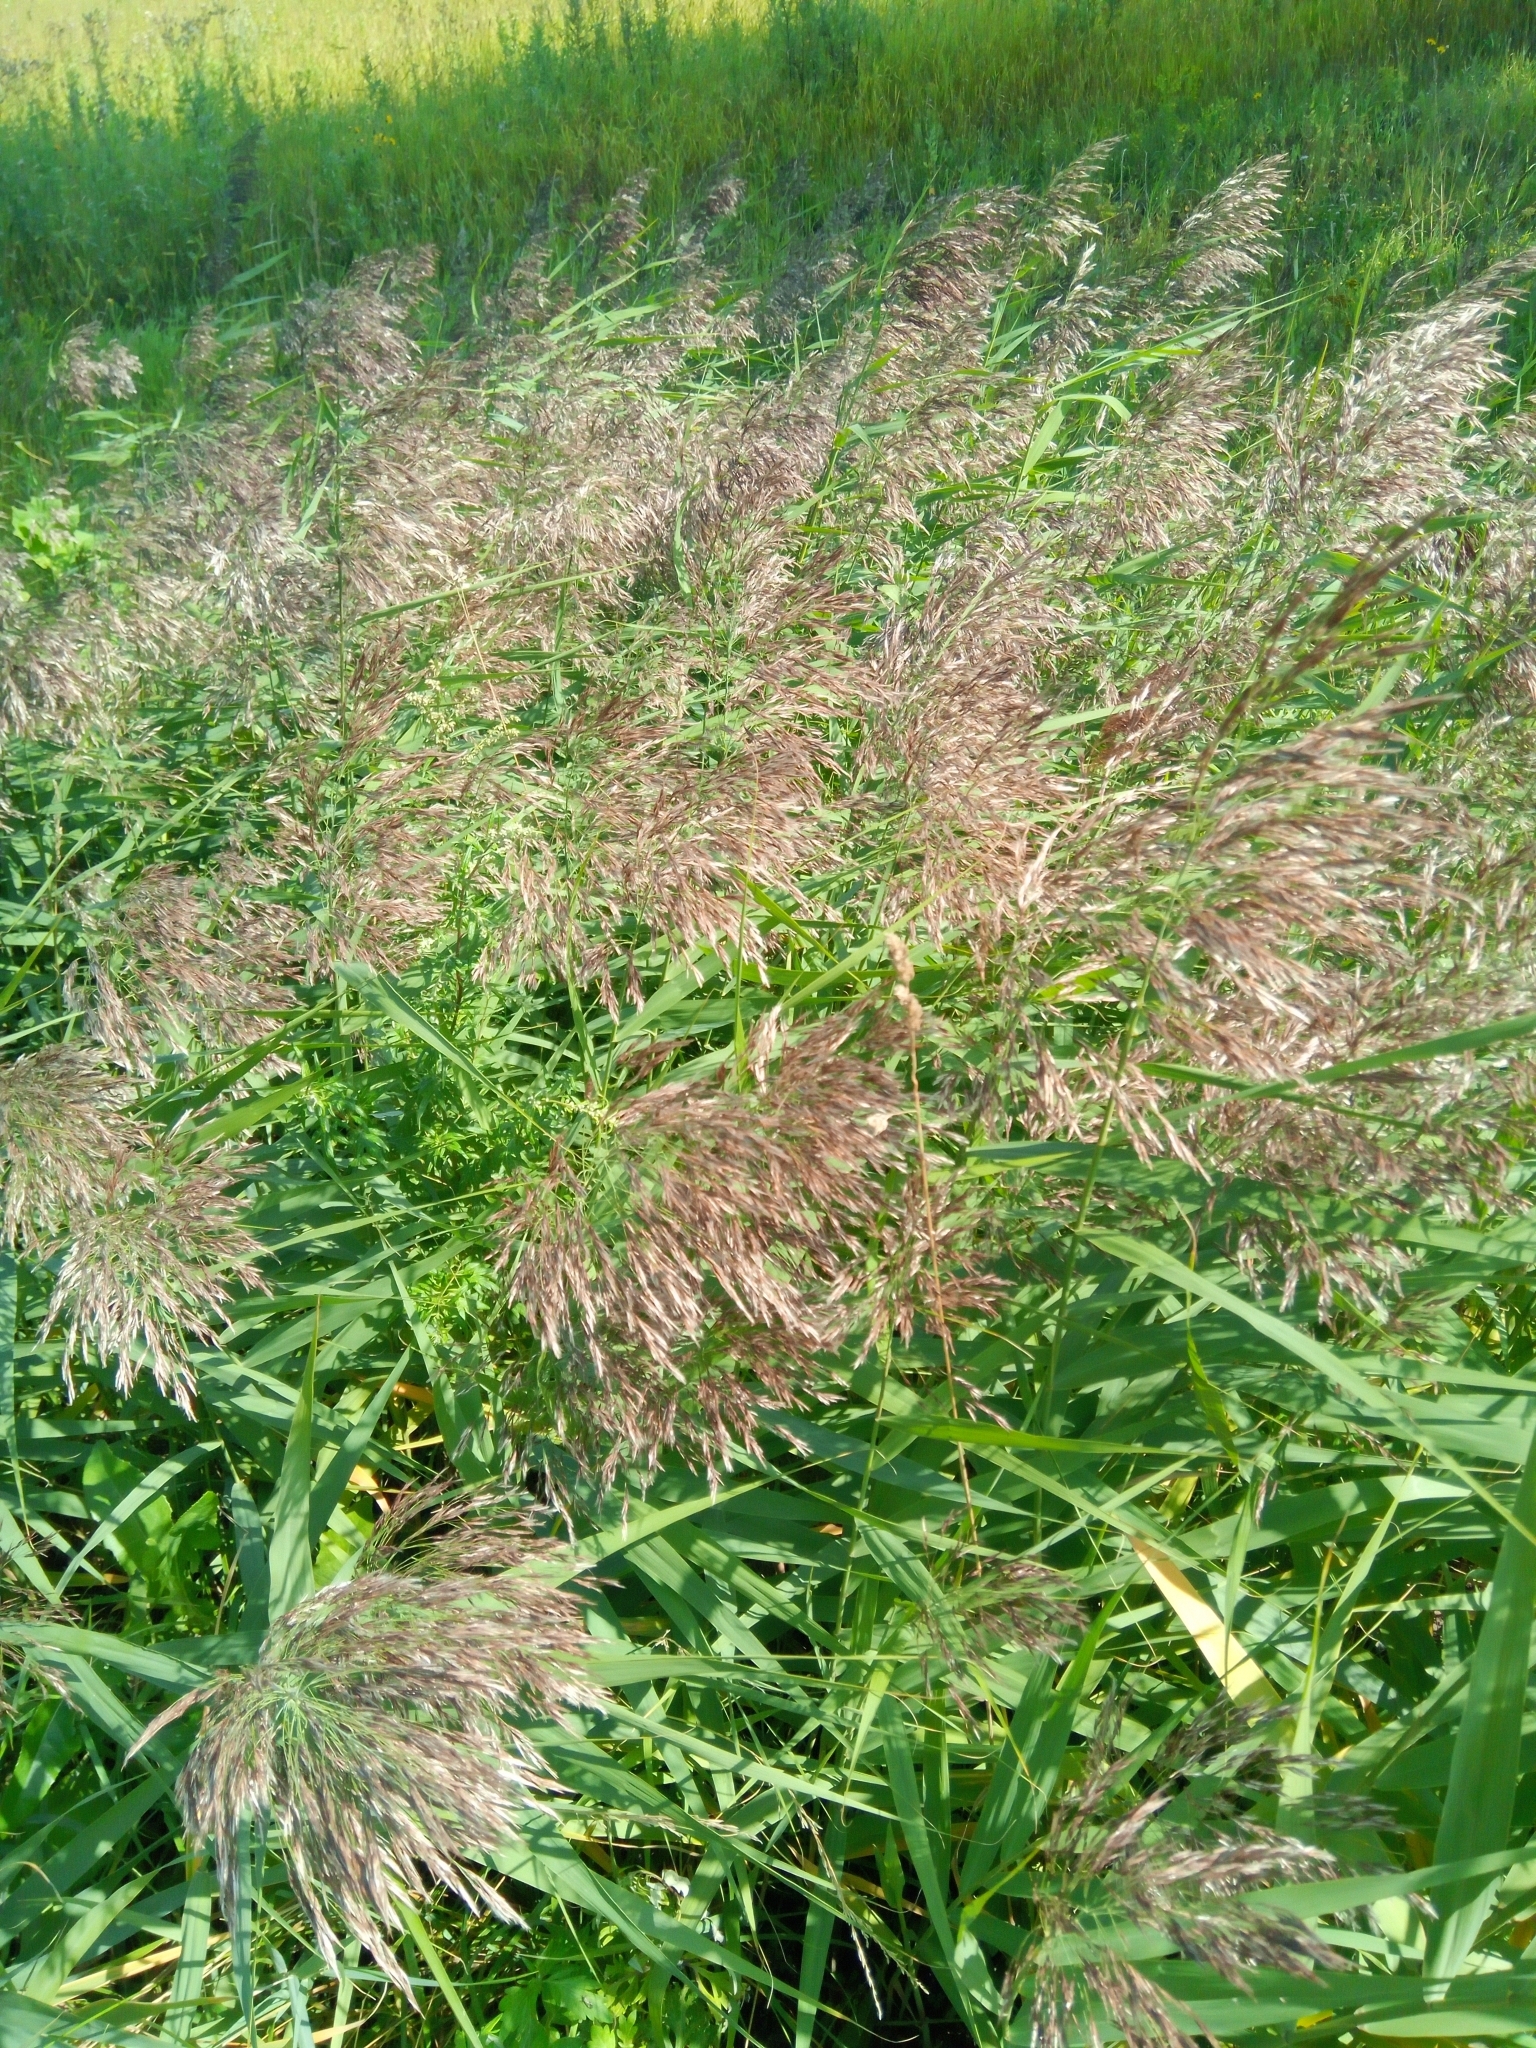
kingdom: Plantae
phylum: Tracheophyta
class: Liliopsida
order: Poales
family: Poaceae
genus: Phragmites
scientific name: Phragmites australis
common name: Common reed
